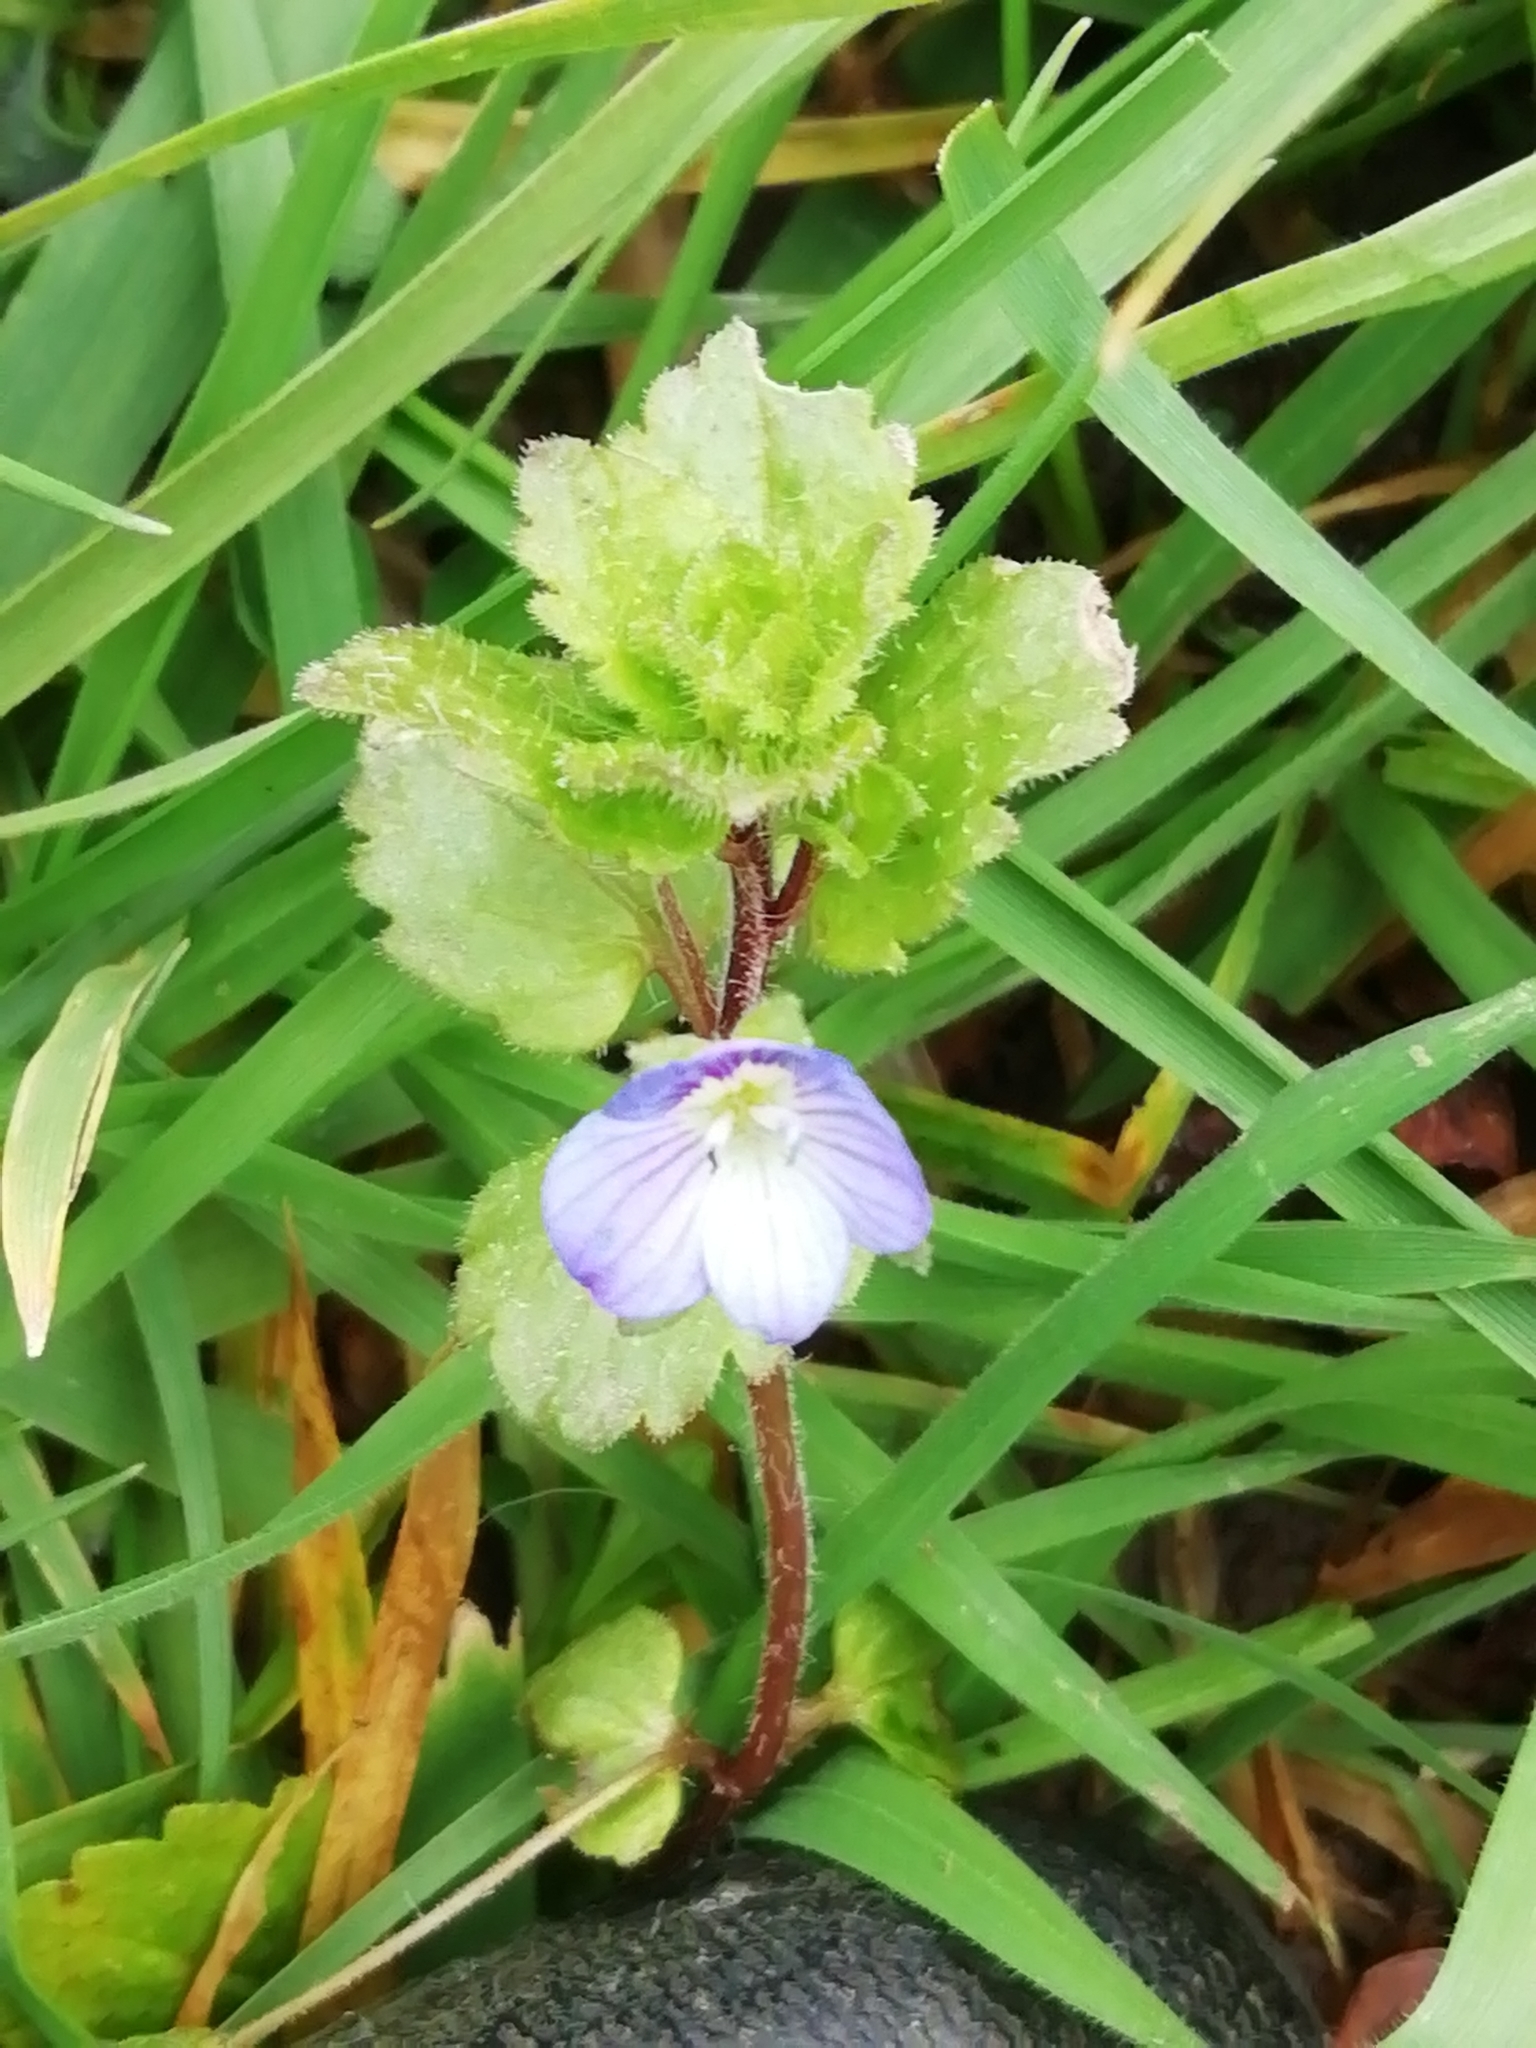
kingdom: Plantae
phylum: Tracheophyta
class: Magnoliopsida
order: Lamiales
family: Plantaginaceae
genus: Veronica
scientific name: Veronica persica
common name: Common field-speedwell
